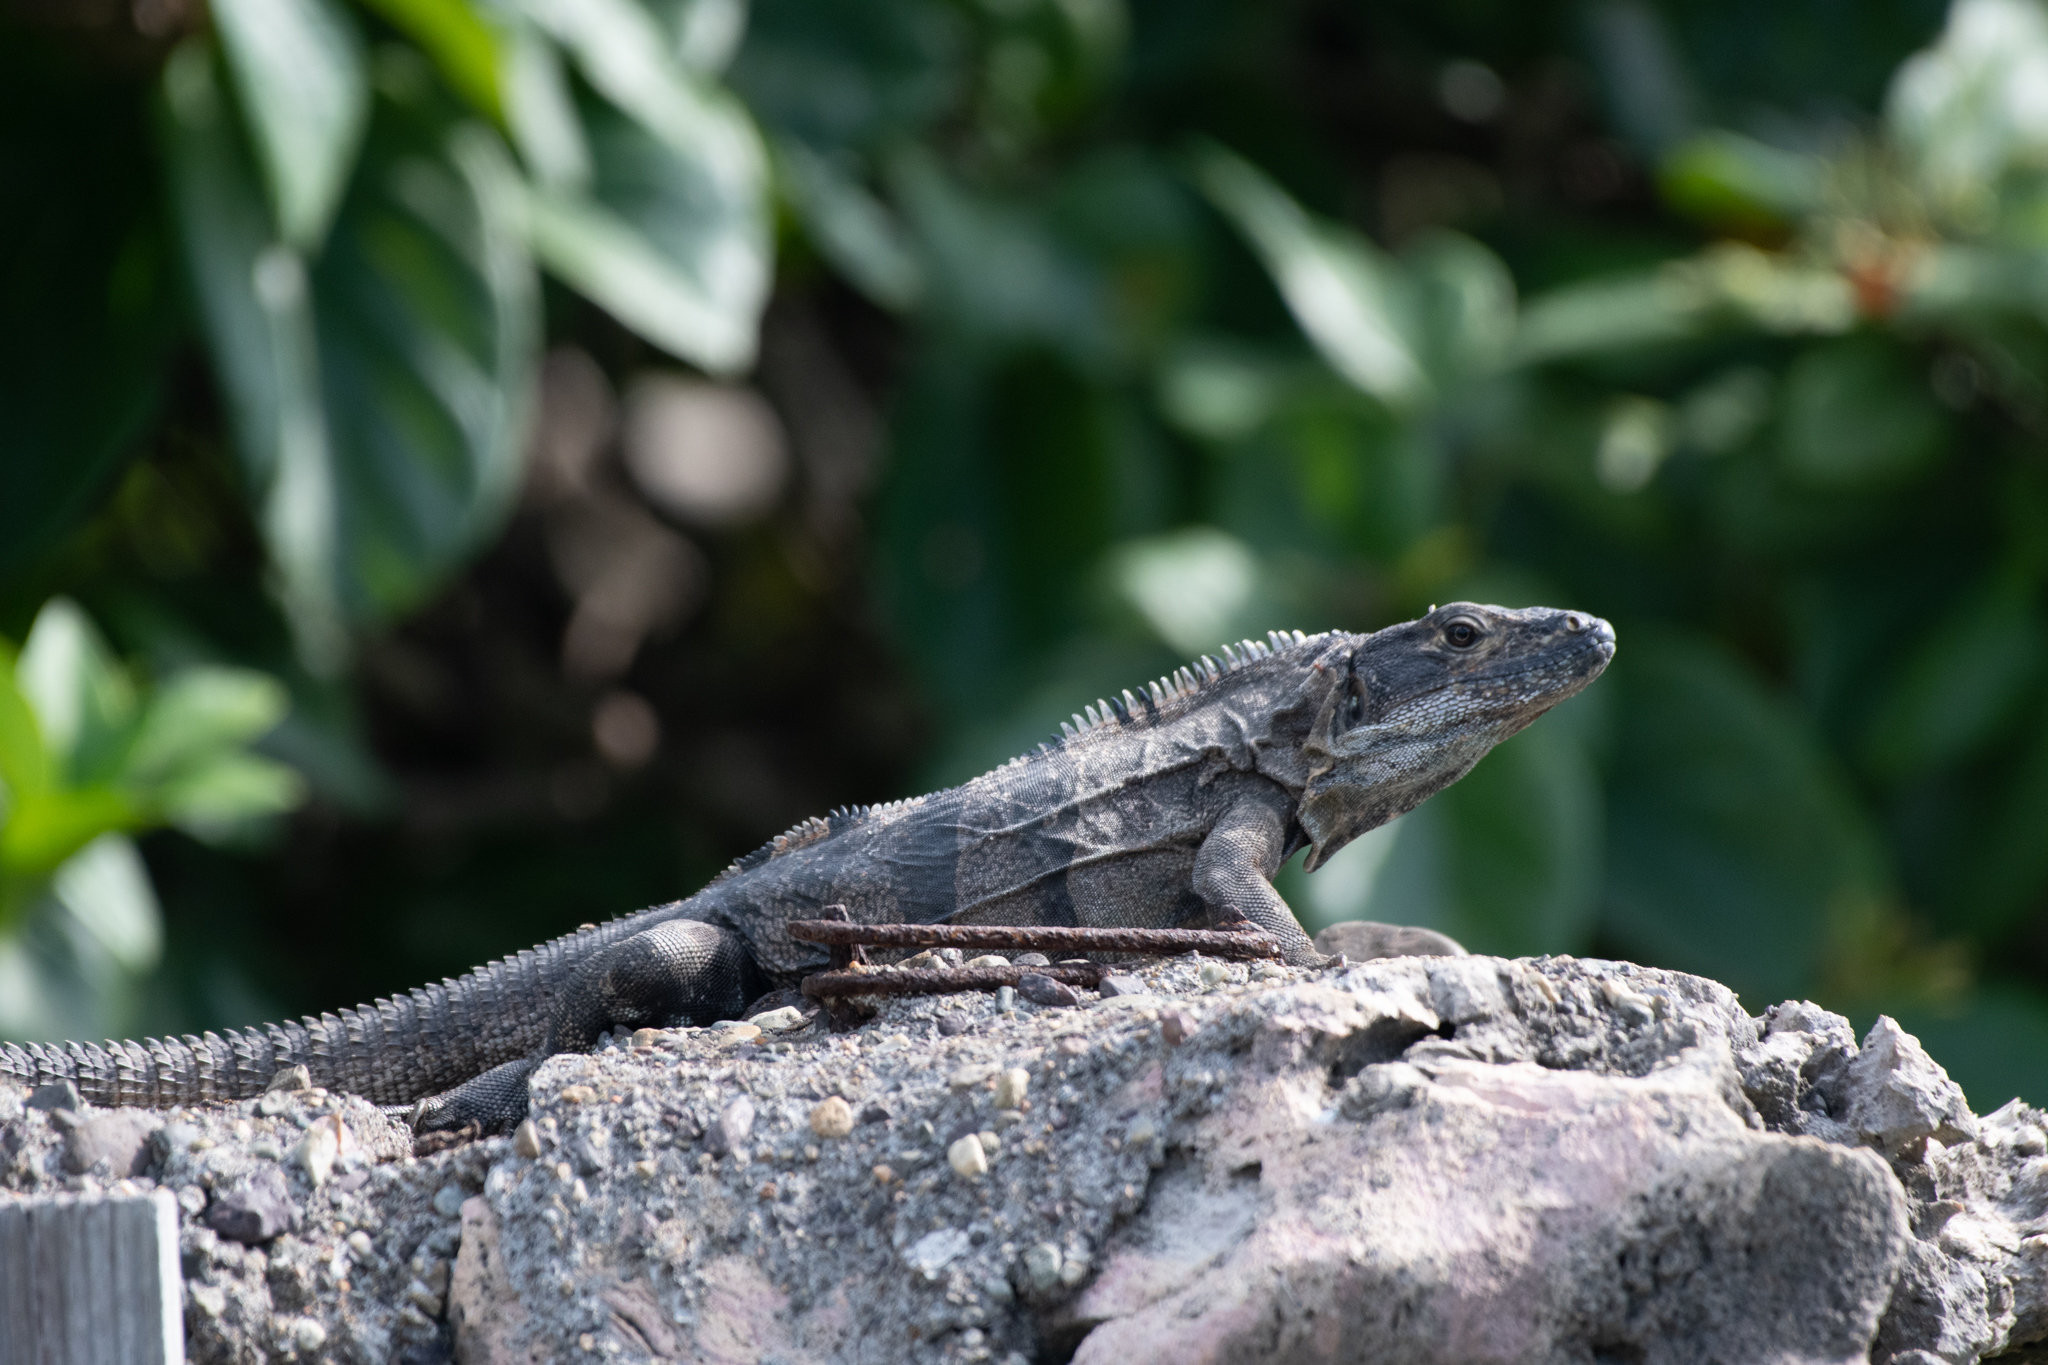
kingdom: Animalia
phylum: Chordata
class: Squamata
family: Iguanidae
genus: Ctenosaura
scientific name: Ctenosaura similis
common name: Black spiny-tailed iguana
